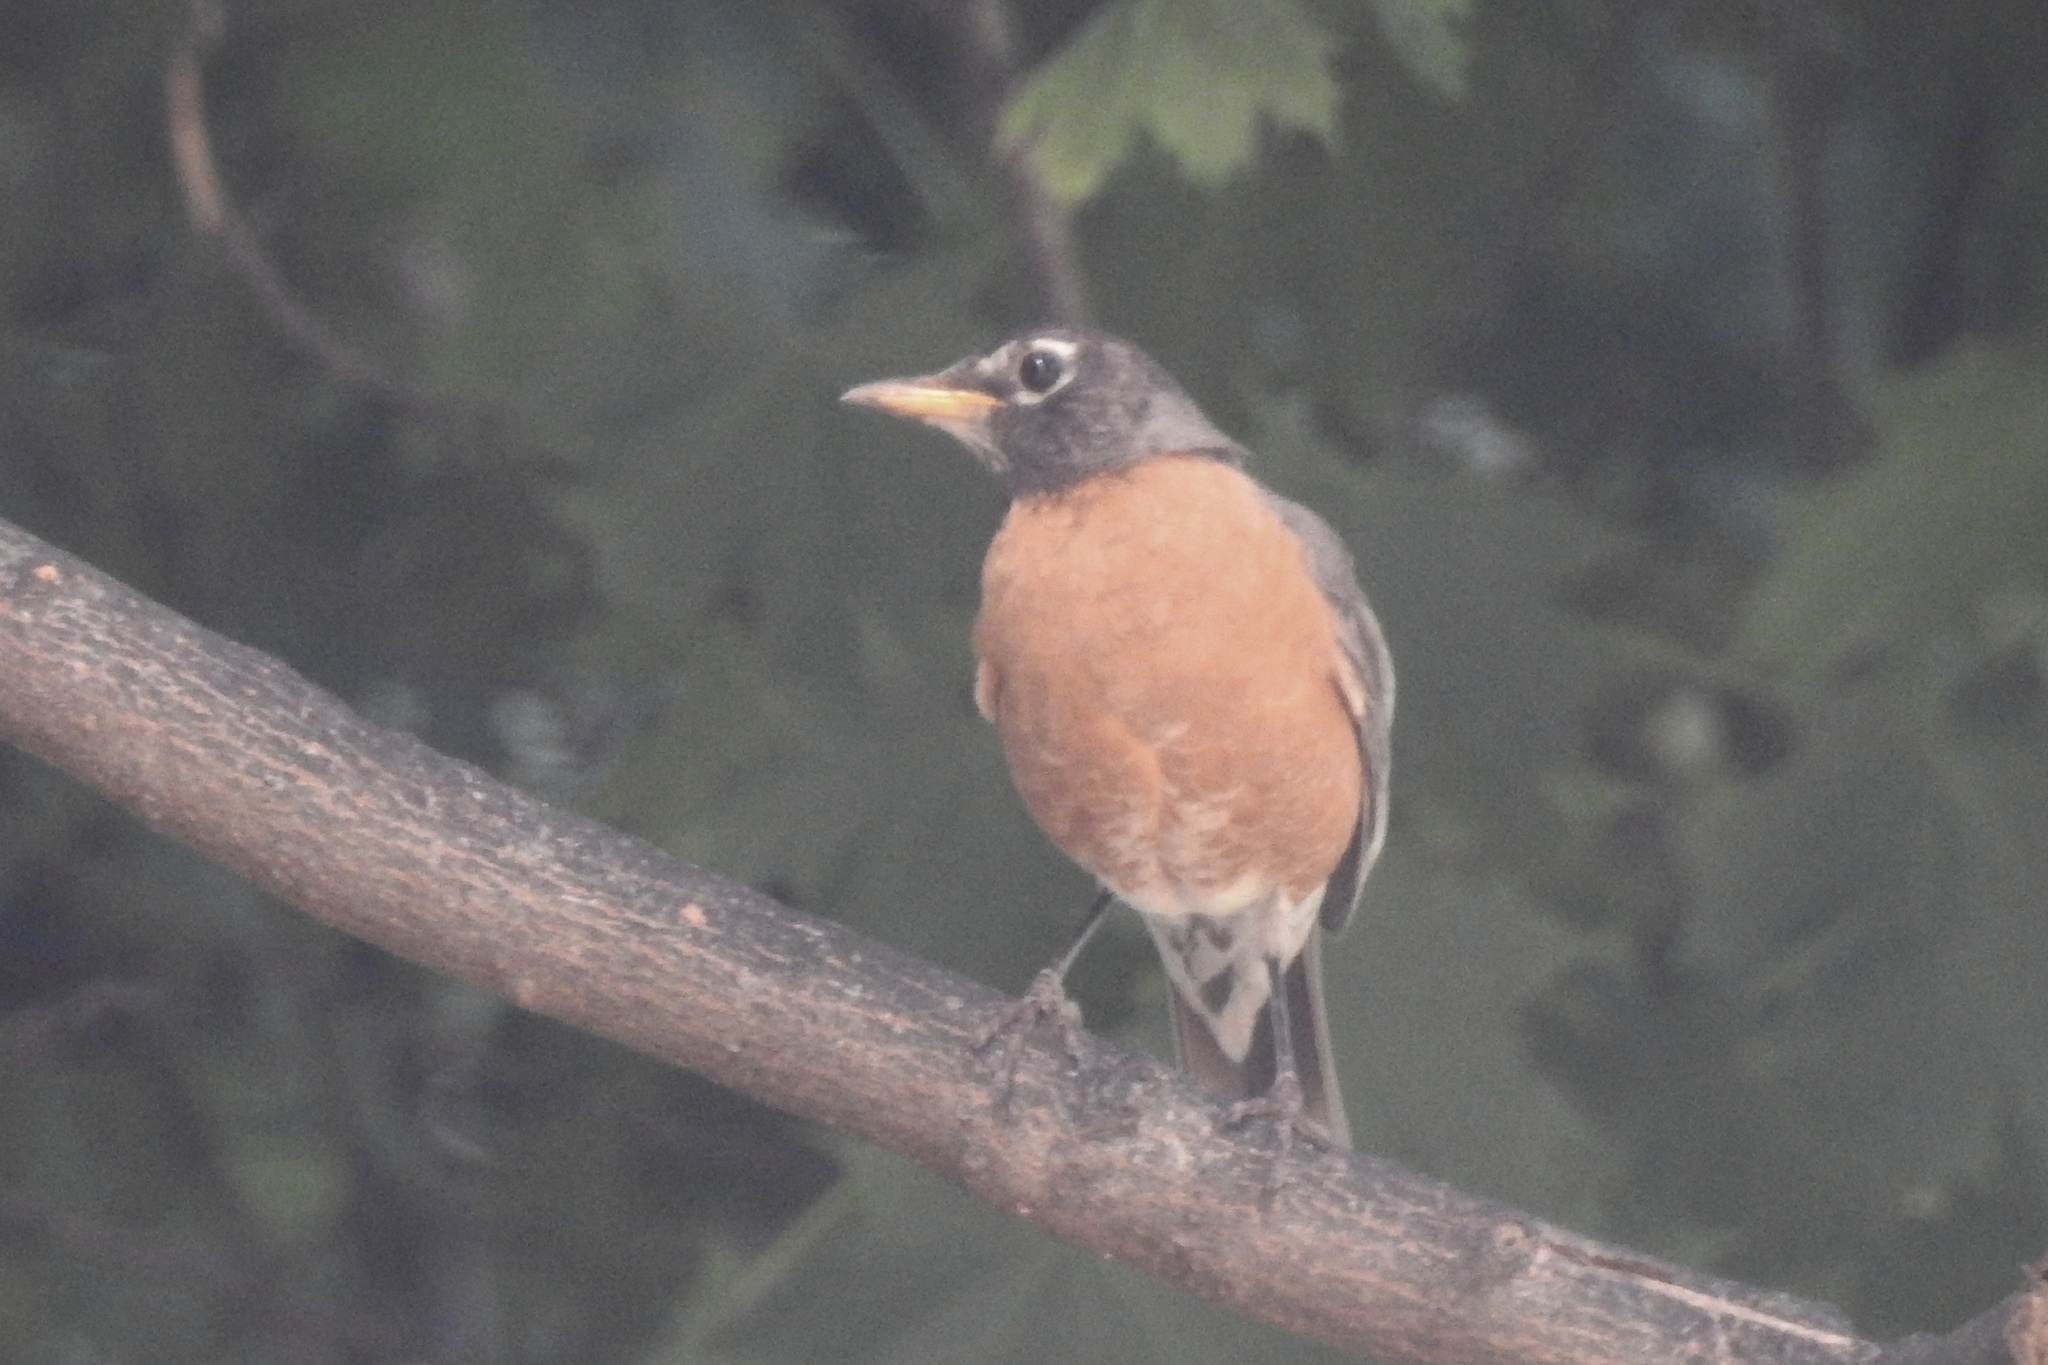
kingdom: Animalia
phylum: Chordata
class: Aves
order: Passeriformes
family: Turdidae
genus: Turdus
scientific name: Turdus migratorius
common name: American robin
